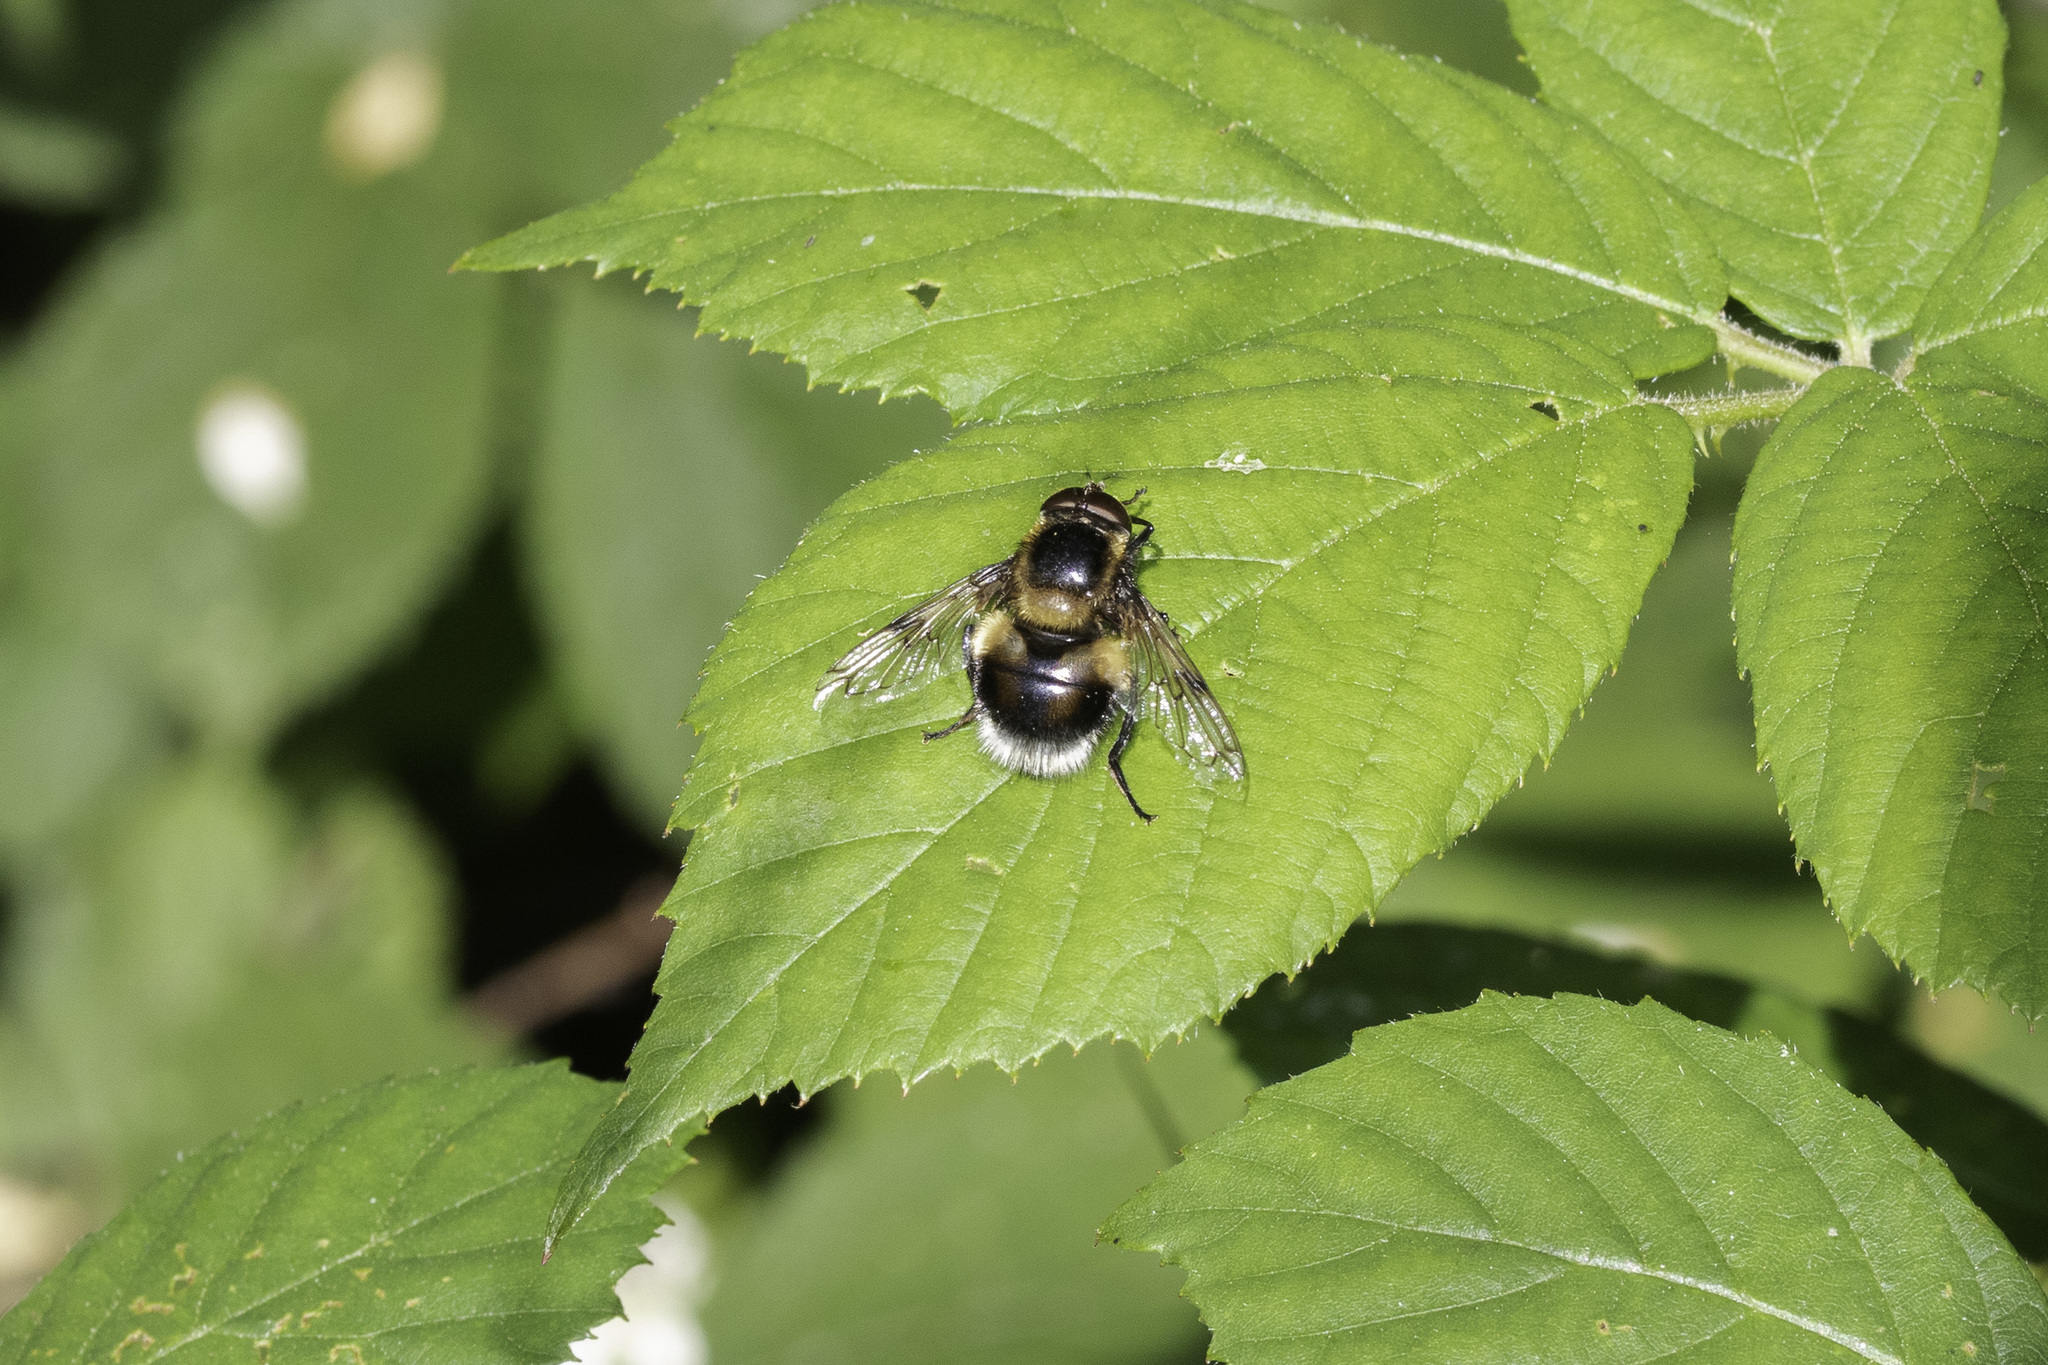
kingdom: Animalia
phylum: Arthropoda
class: Insecta
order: Diptera
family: Syrphidae
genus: Volucella
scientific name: Volucella bombylans
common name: Bumble bee hover fly
